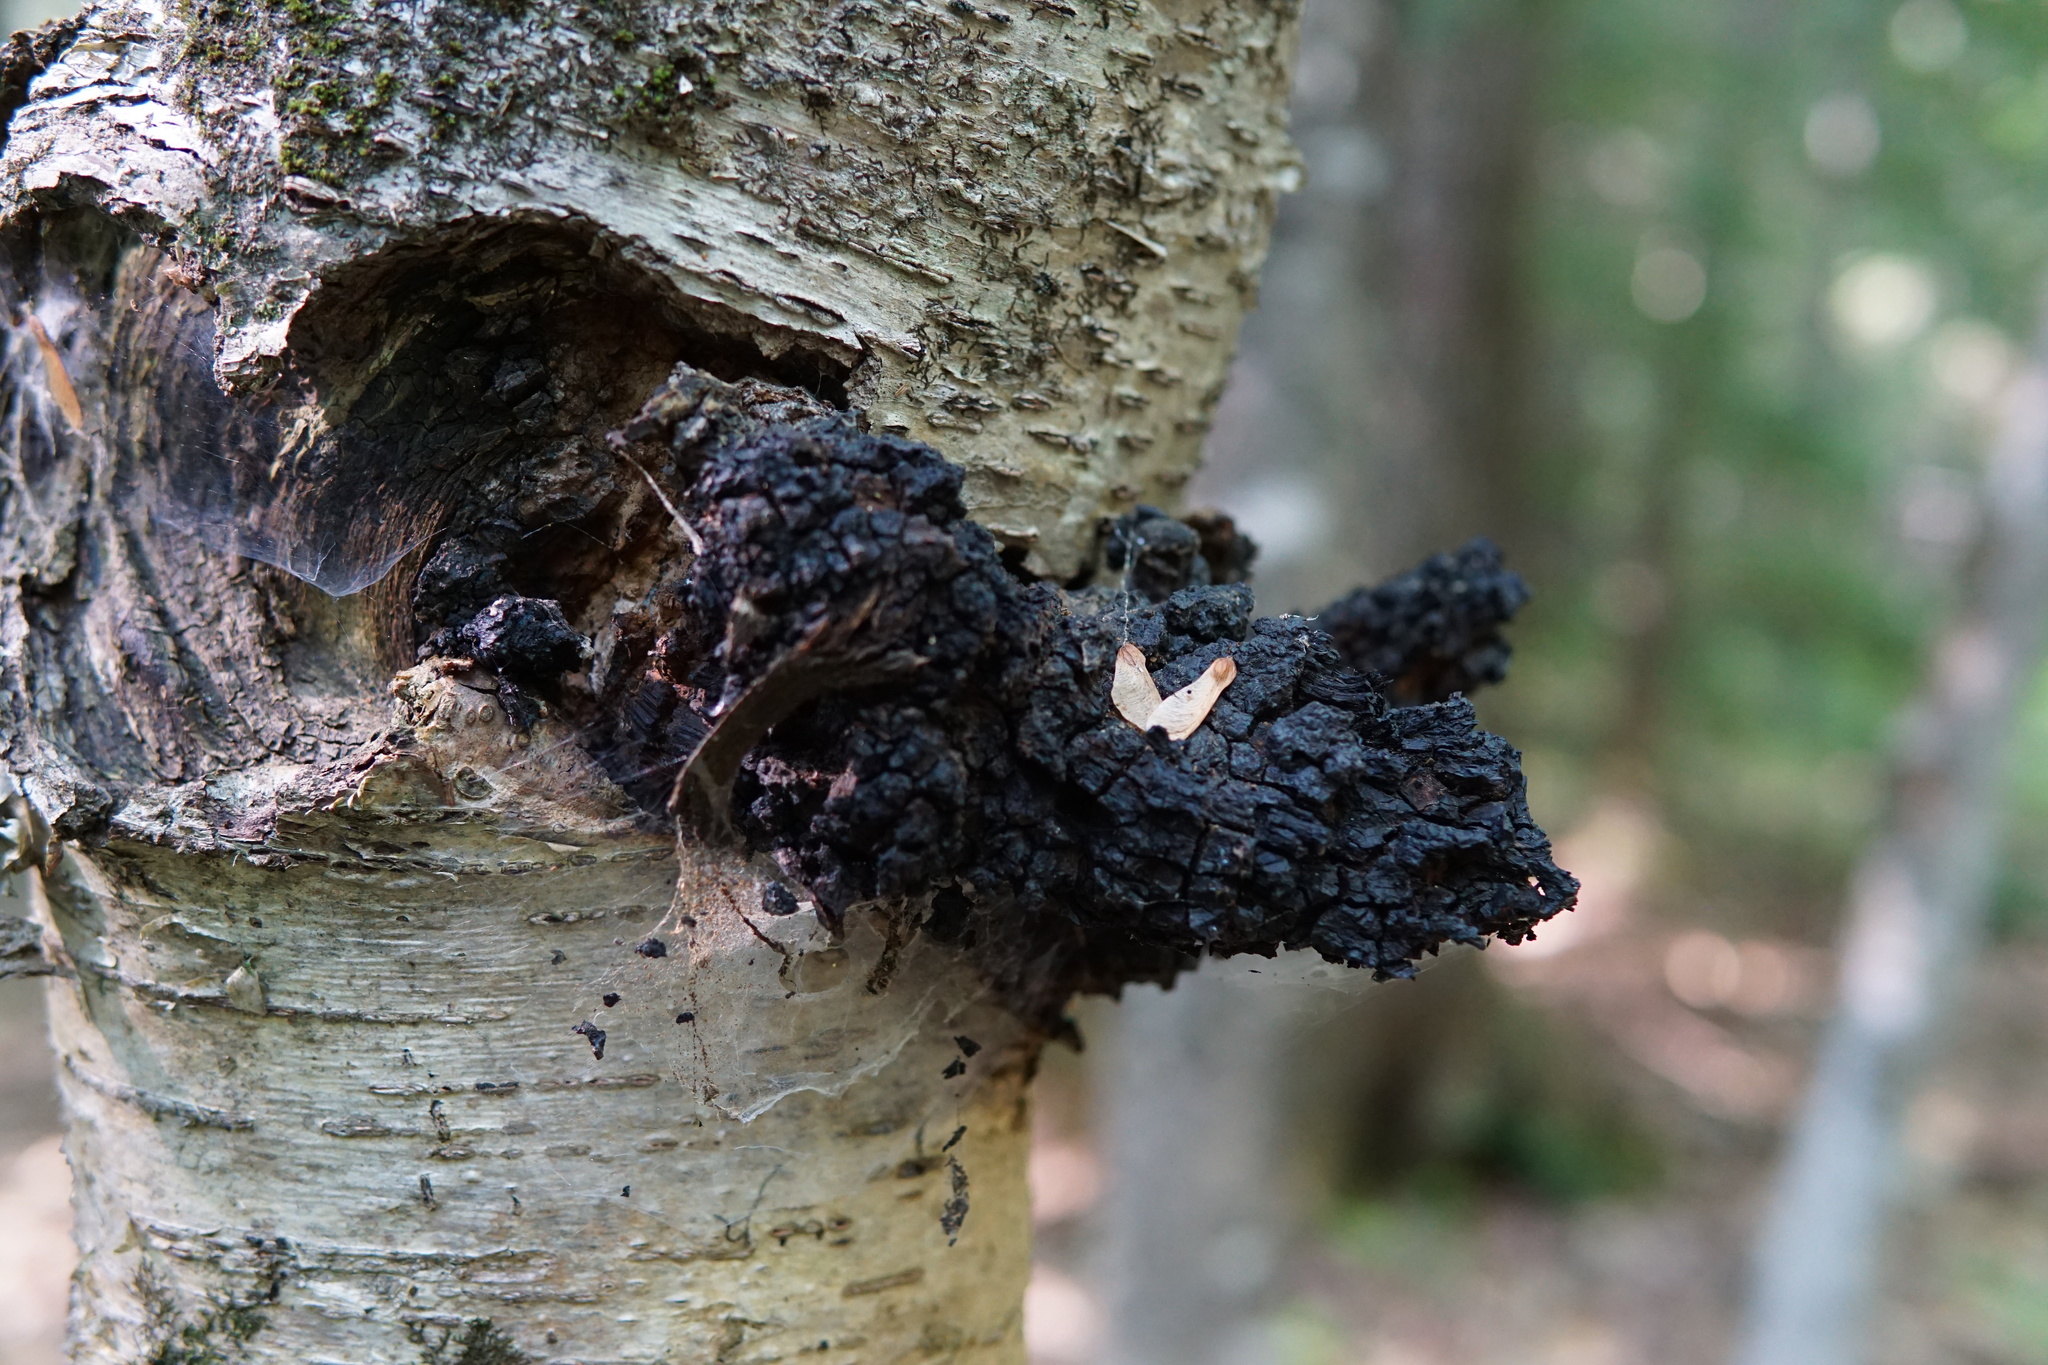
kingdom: Fungi
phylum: Basidiomycota
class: Agaricomycetes
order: Hymenochaetales
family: Hymenochaetaceae
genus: Inonotus
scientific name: Inonotus obliquus
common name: Chaga
